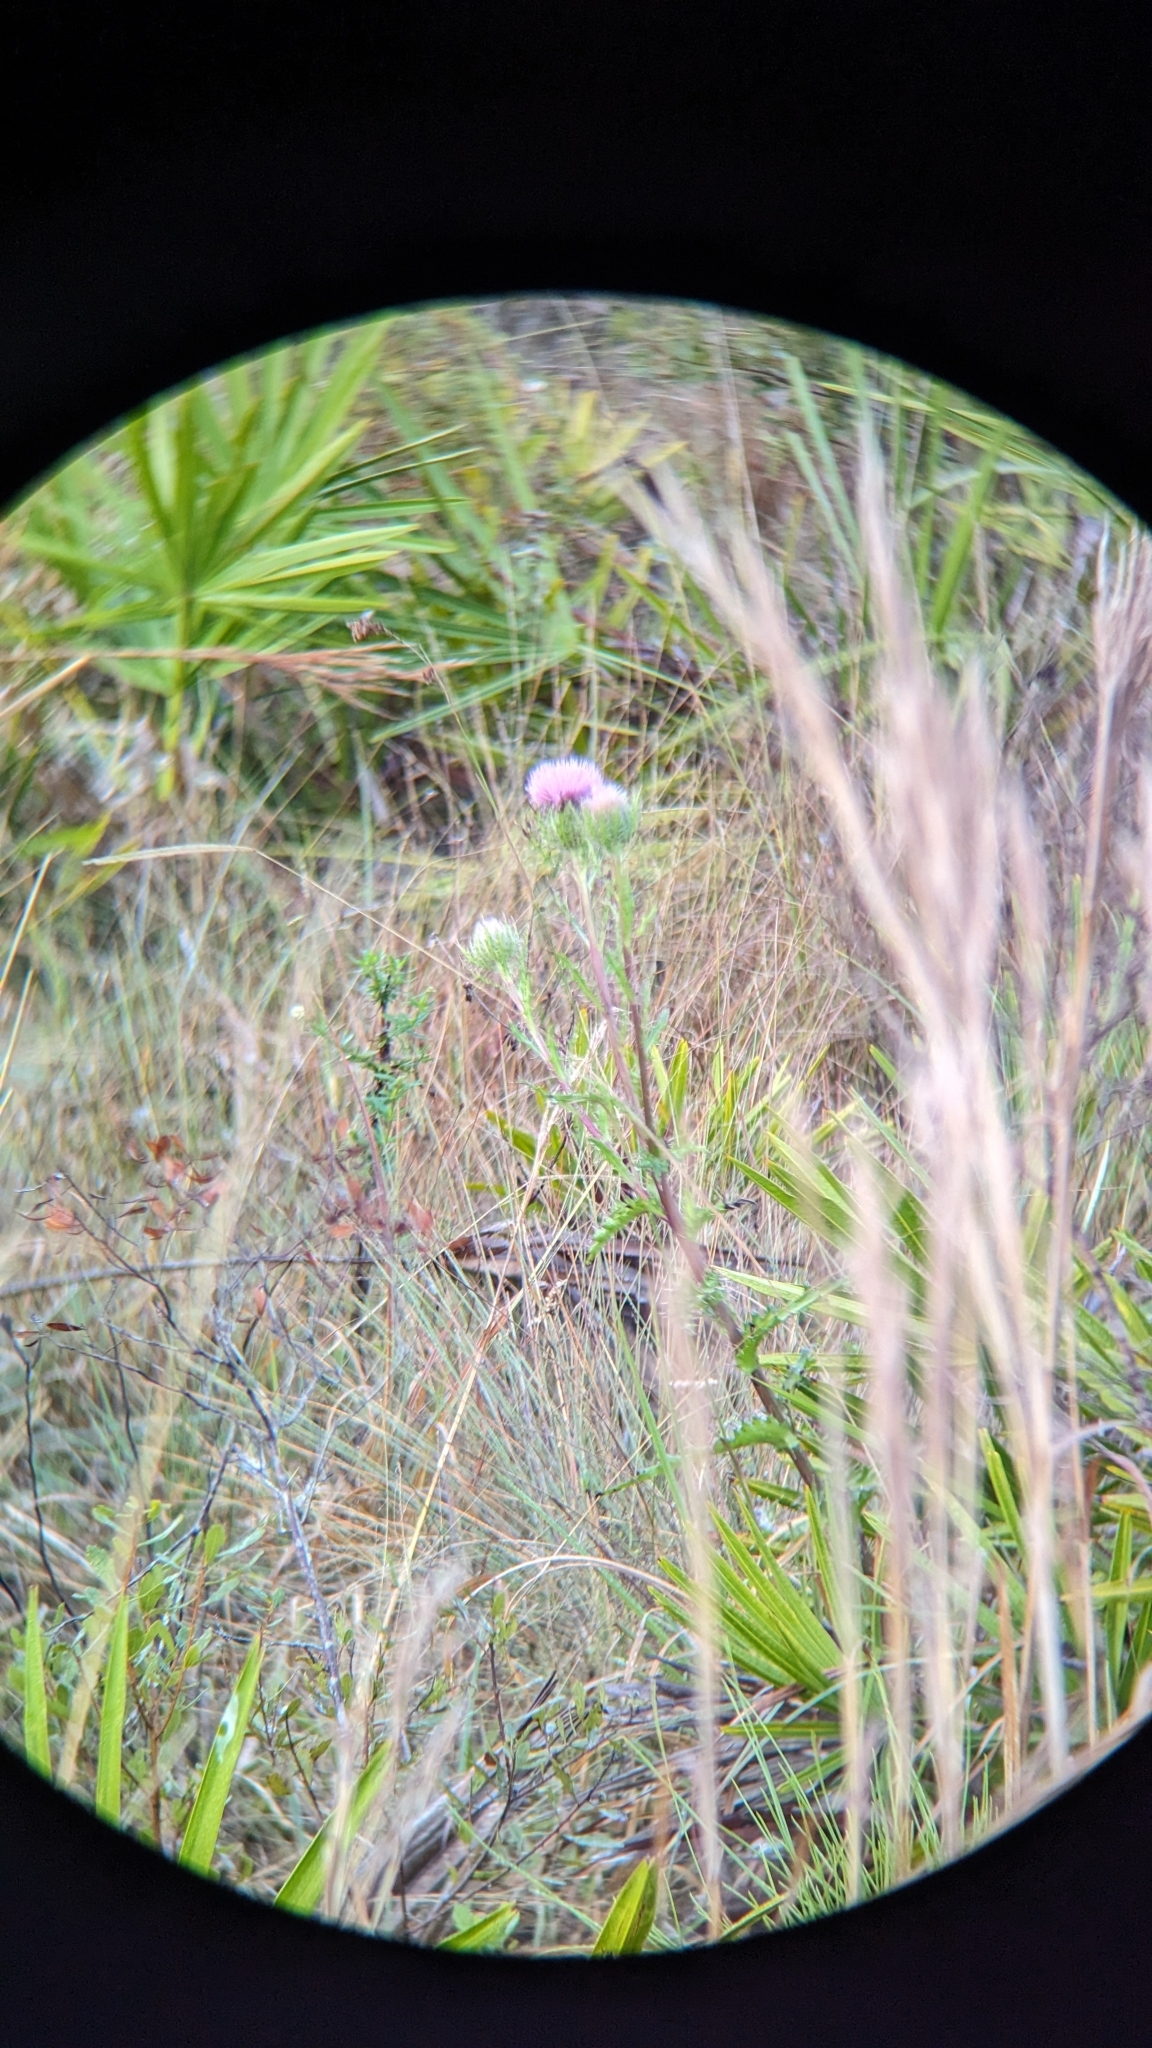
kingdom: Plantae
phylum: Tracheophyta
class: Magnoliopsida
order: Asterales
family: Asteraceae
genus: Cirsium
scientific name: Cirsium horridulum
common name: Bristly thistle
